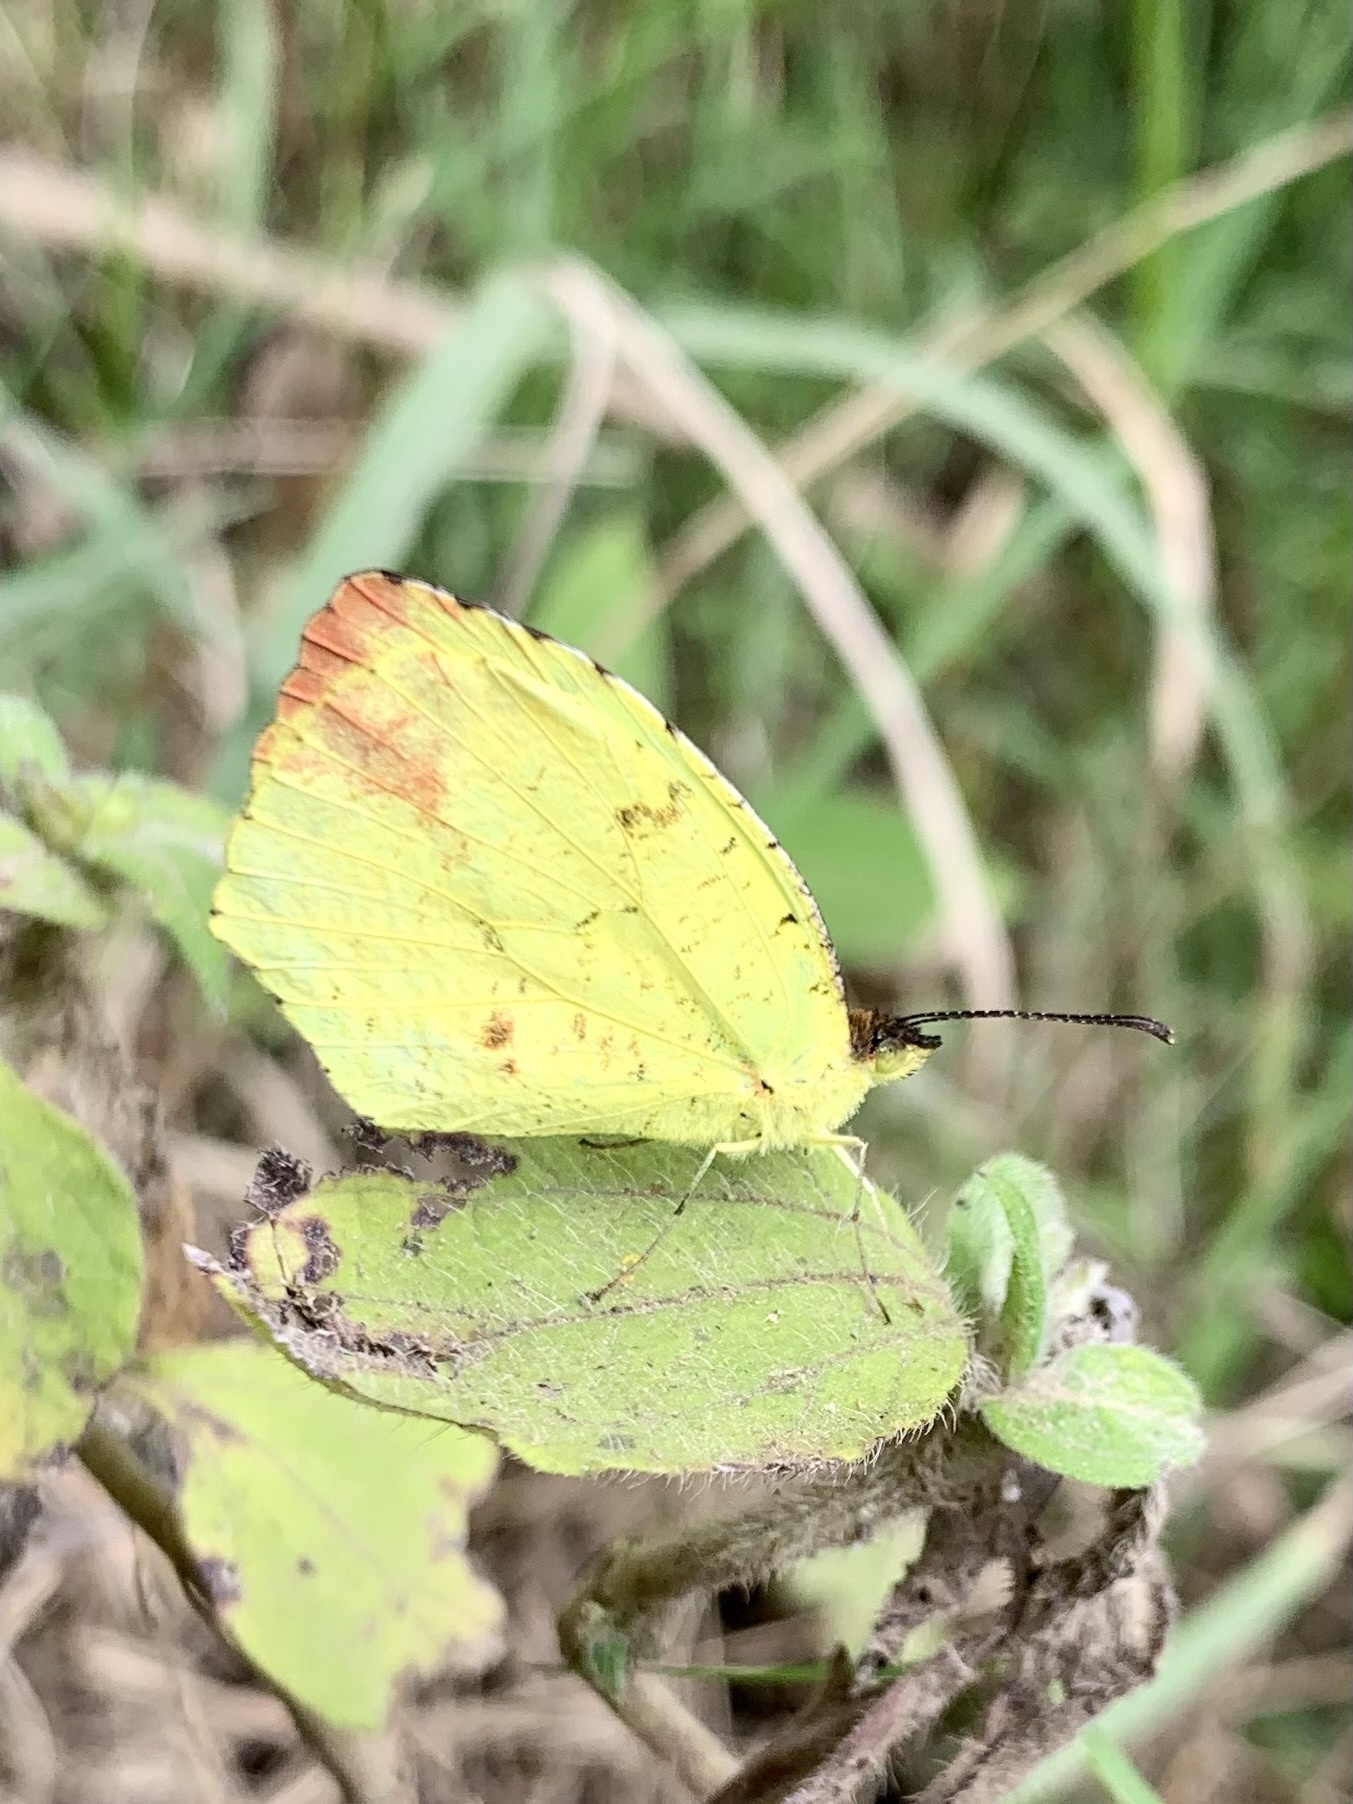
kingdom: Animalia
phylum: Arthropoda
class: Insecta
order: Lepidoptera
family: Pieridae
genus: Abaeis
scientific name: Abaeis salome
